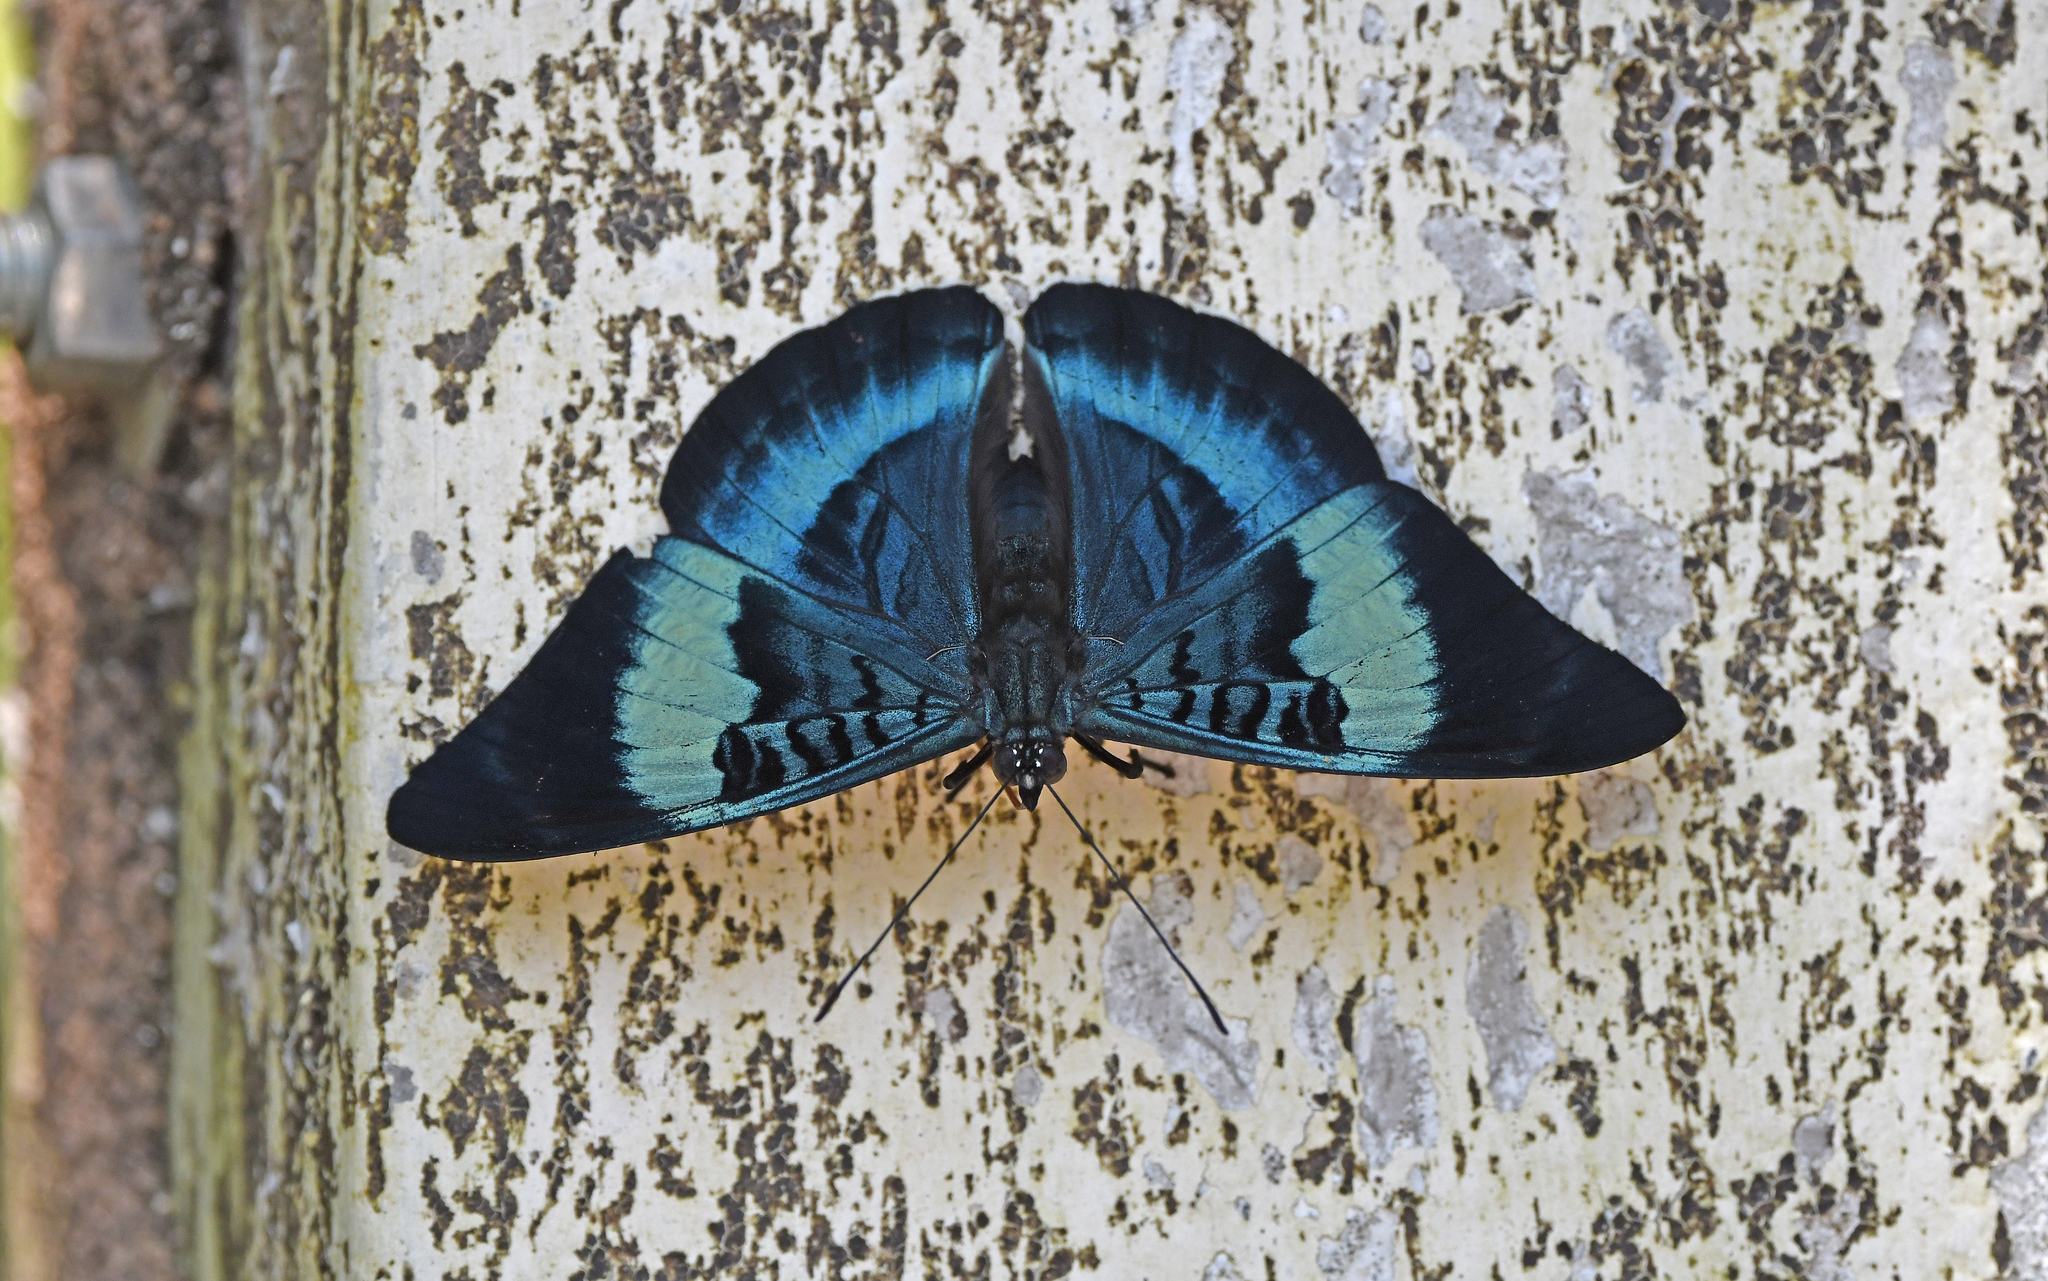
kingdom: Animalia
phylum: Arthropoda
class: Insecta
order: Lepidoptera
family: Nymphalidae
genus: Panacea
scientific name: Panacea prola
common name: Red flasher
